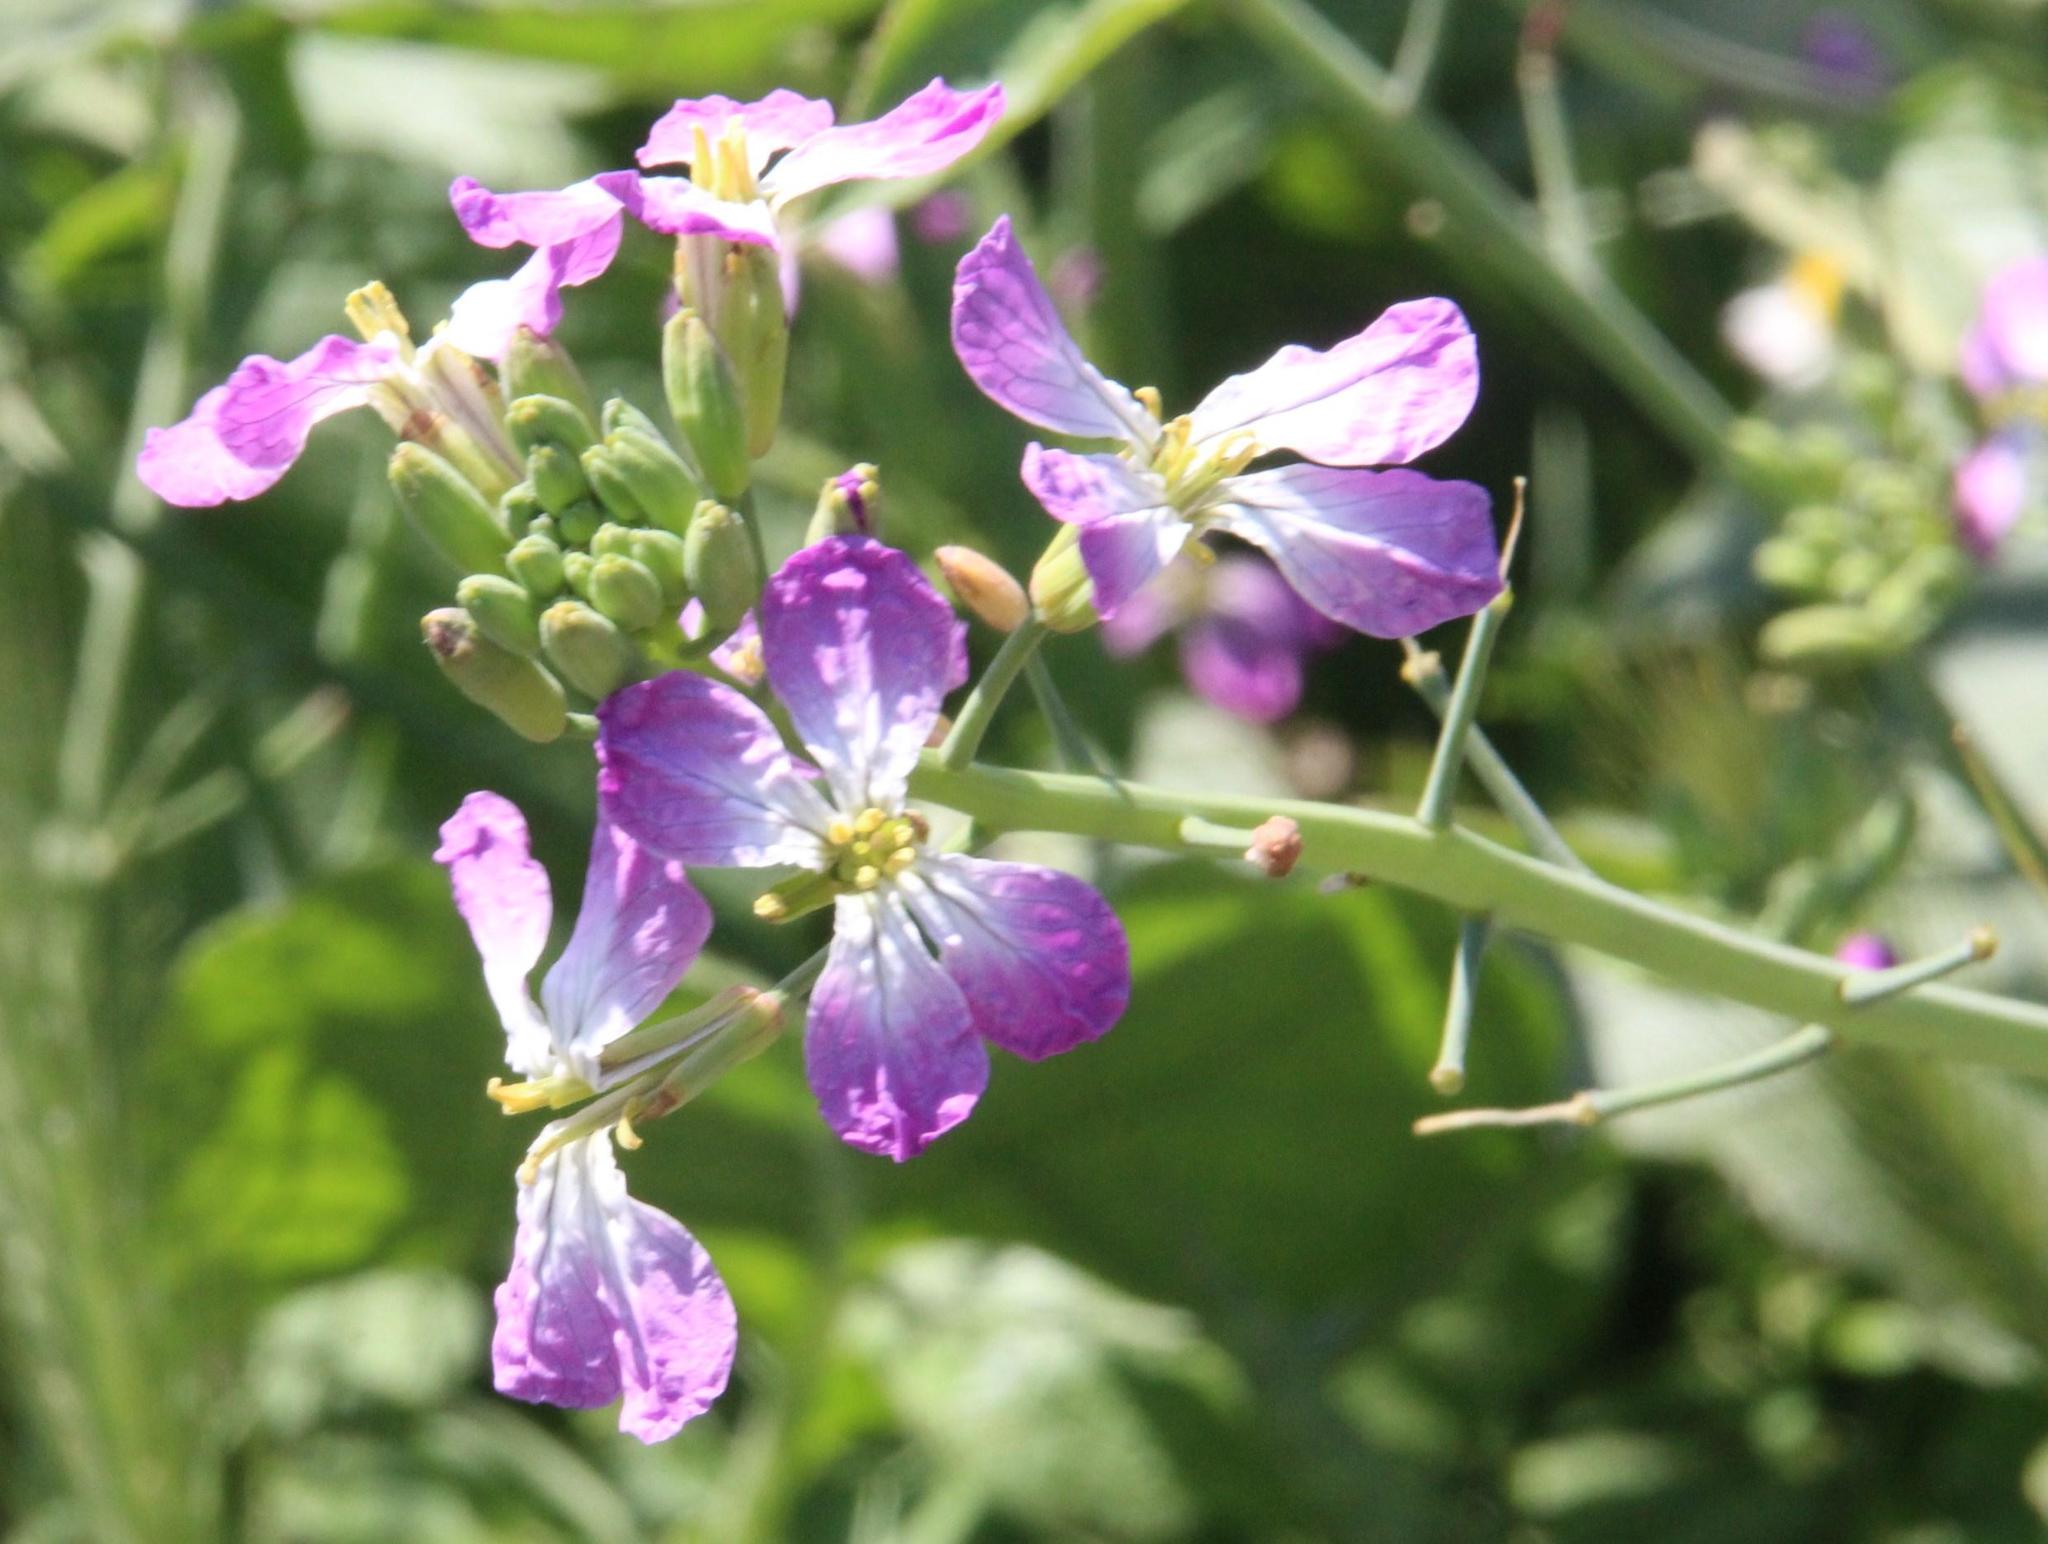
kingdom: Plantae
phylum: Tracheophyta
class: Magnoliopsida
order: Brassicales
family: Brassicaceae
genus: Raphanus
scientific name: Raphanus sativus
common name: Cultivated radish
